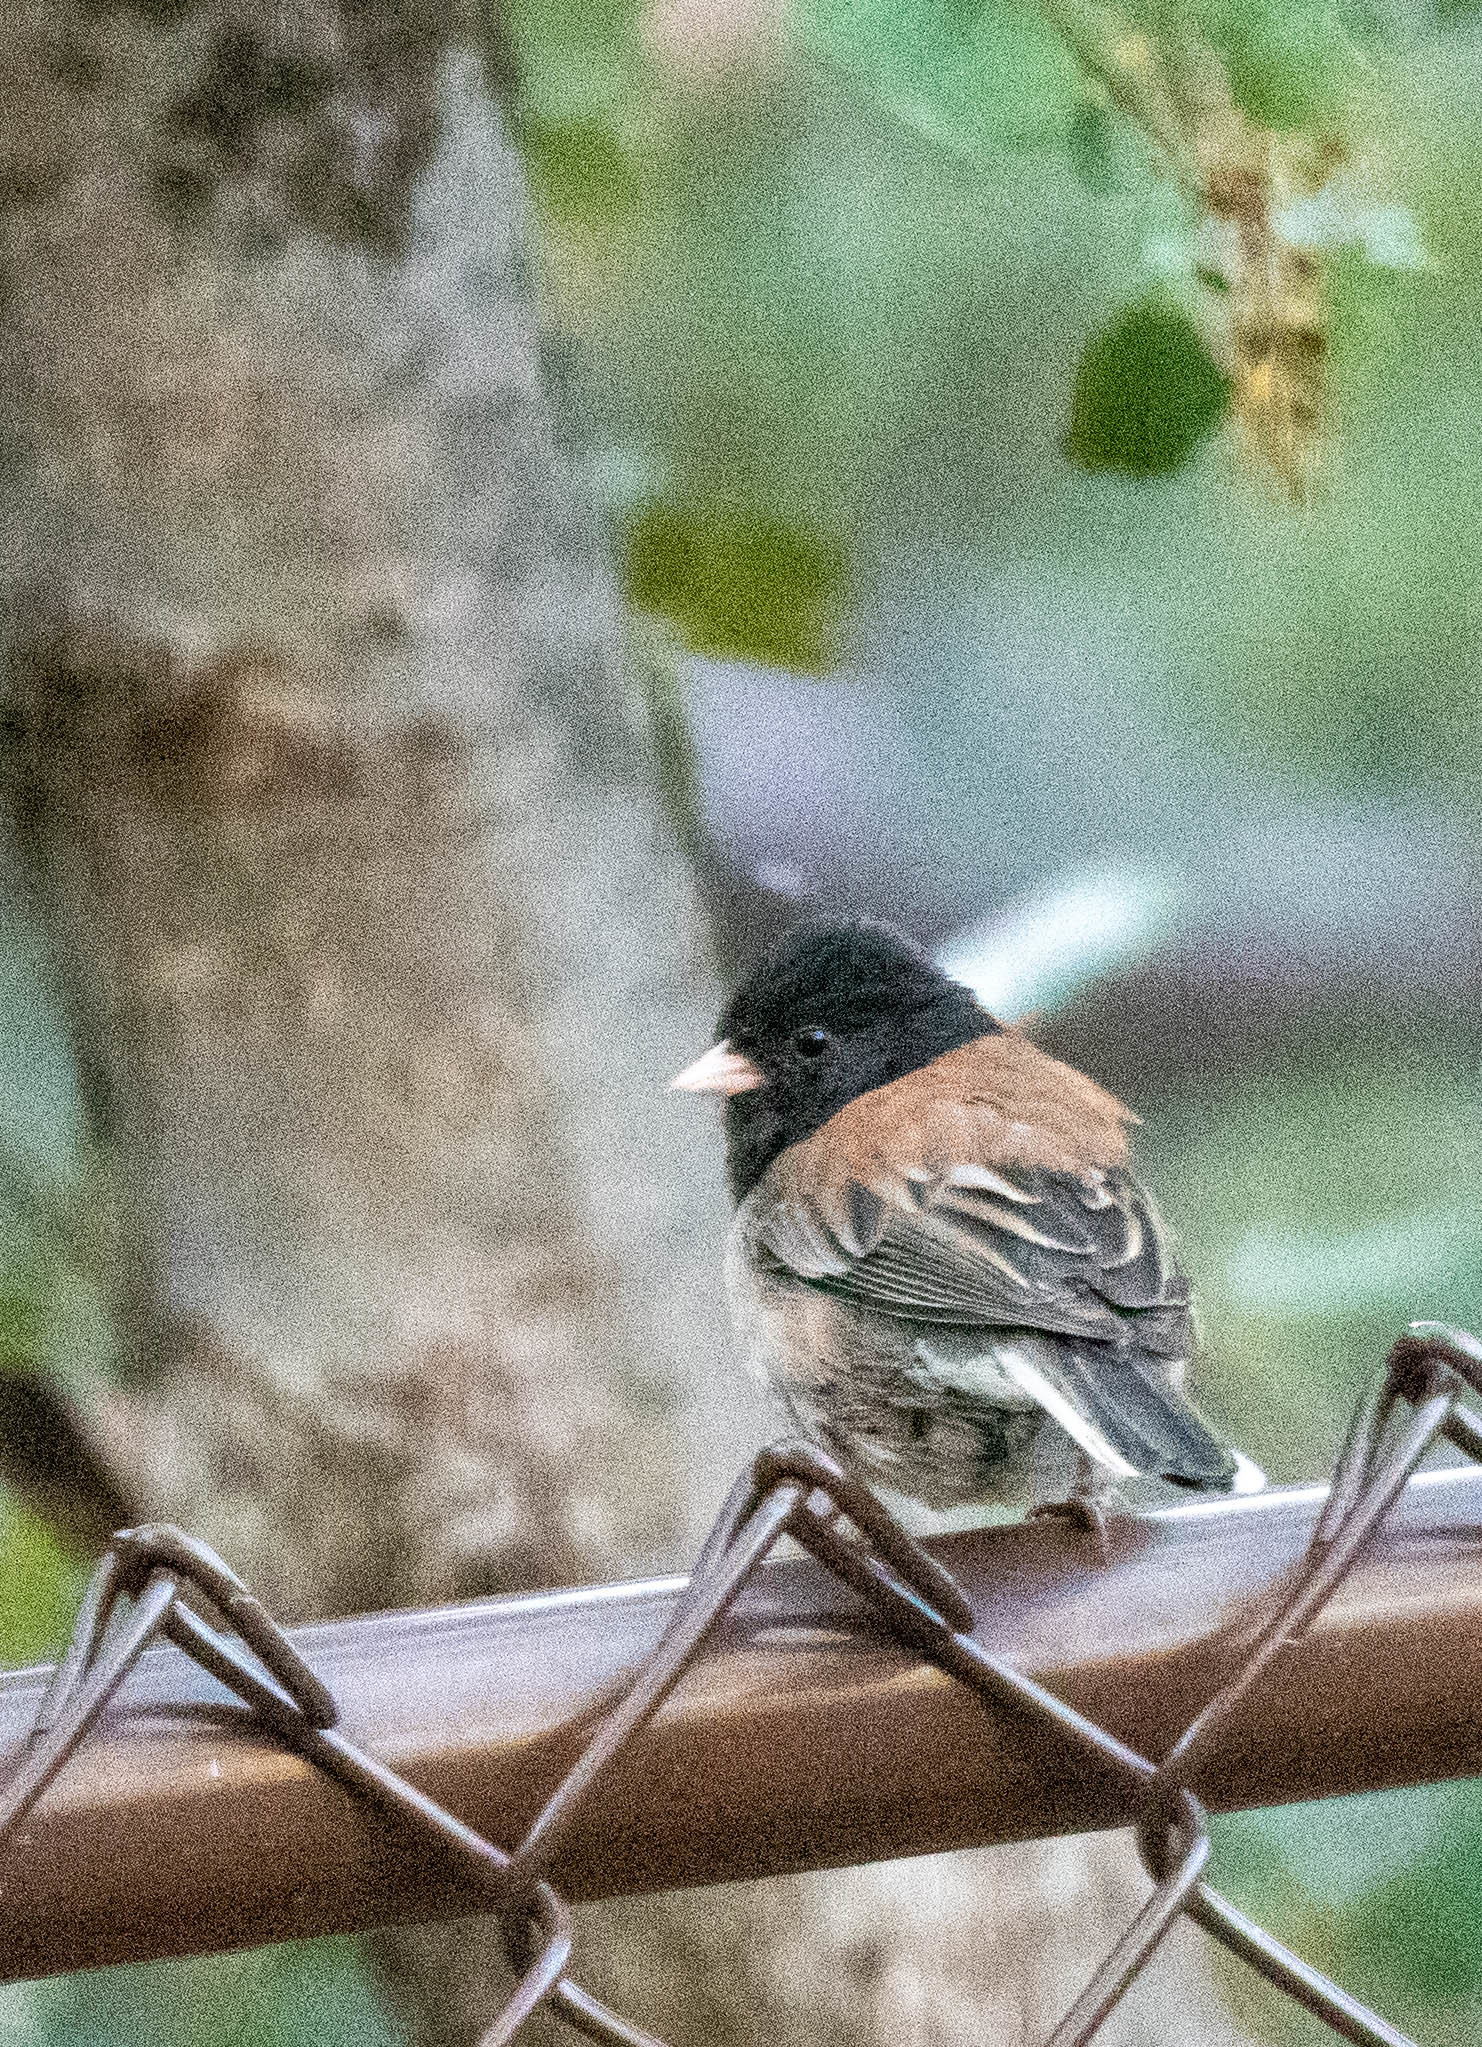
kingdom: Animalia
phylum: Chordata
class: Aves
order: Passeriformes
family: Passerellidae
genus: Junco
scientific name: Junco hyemalis
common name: Dark-eyed junco
